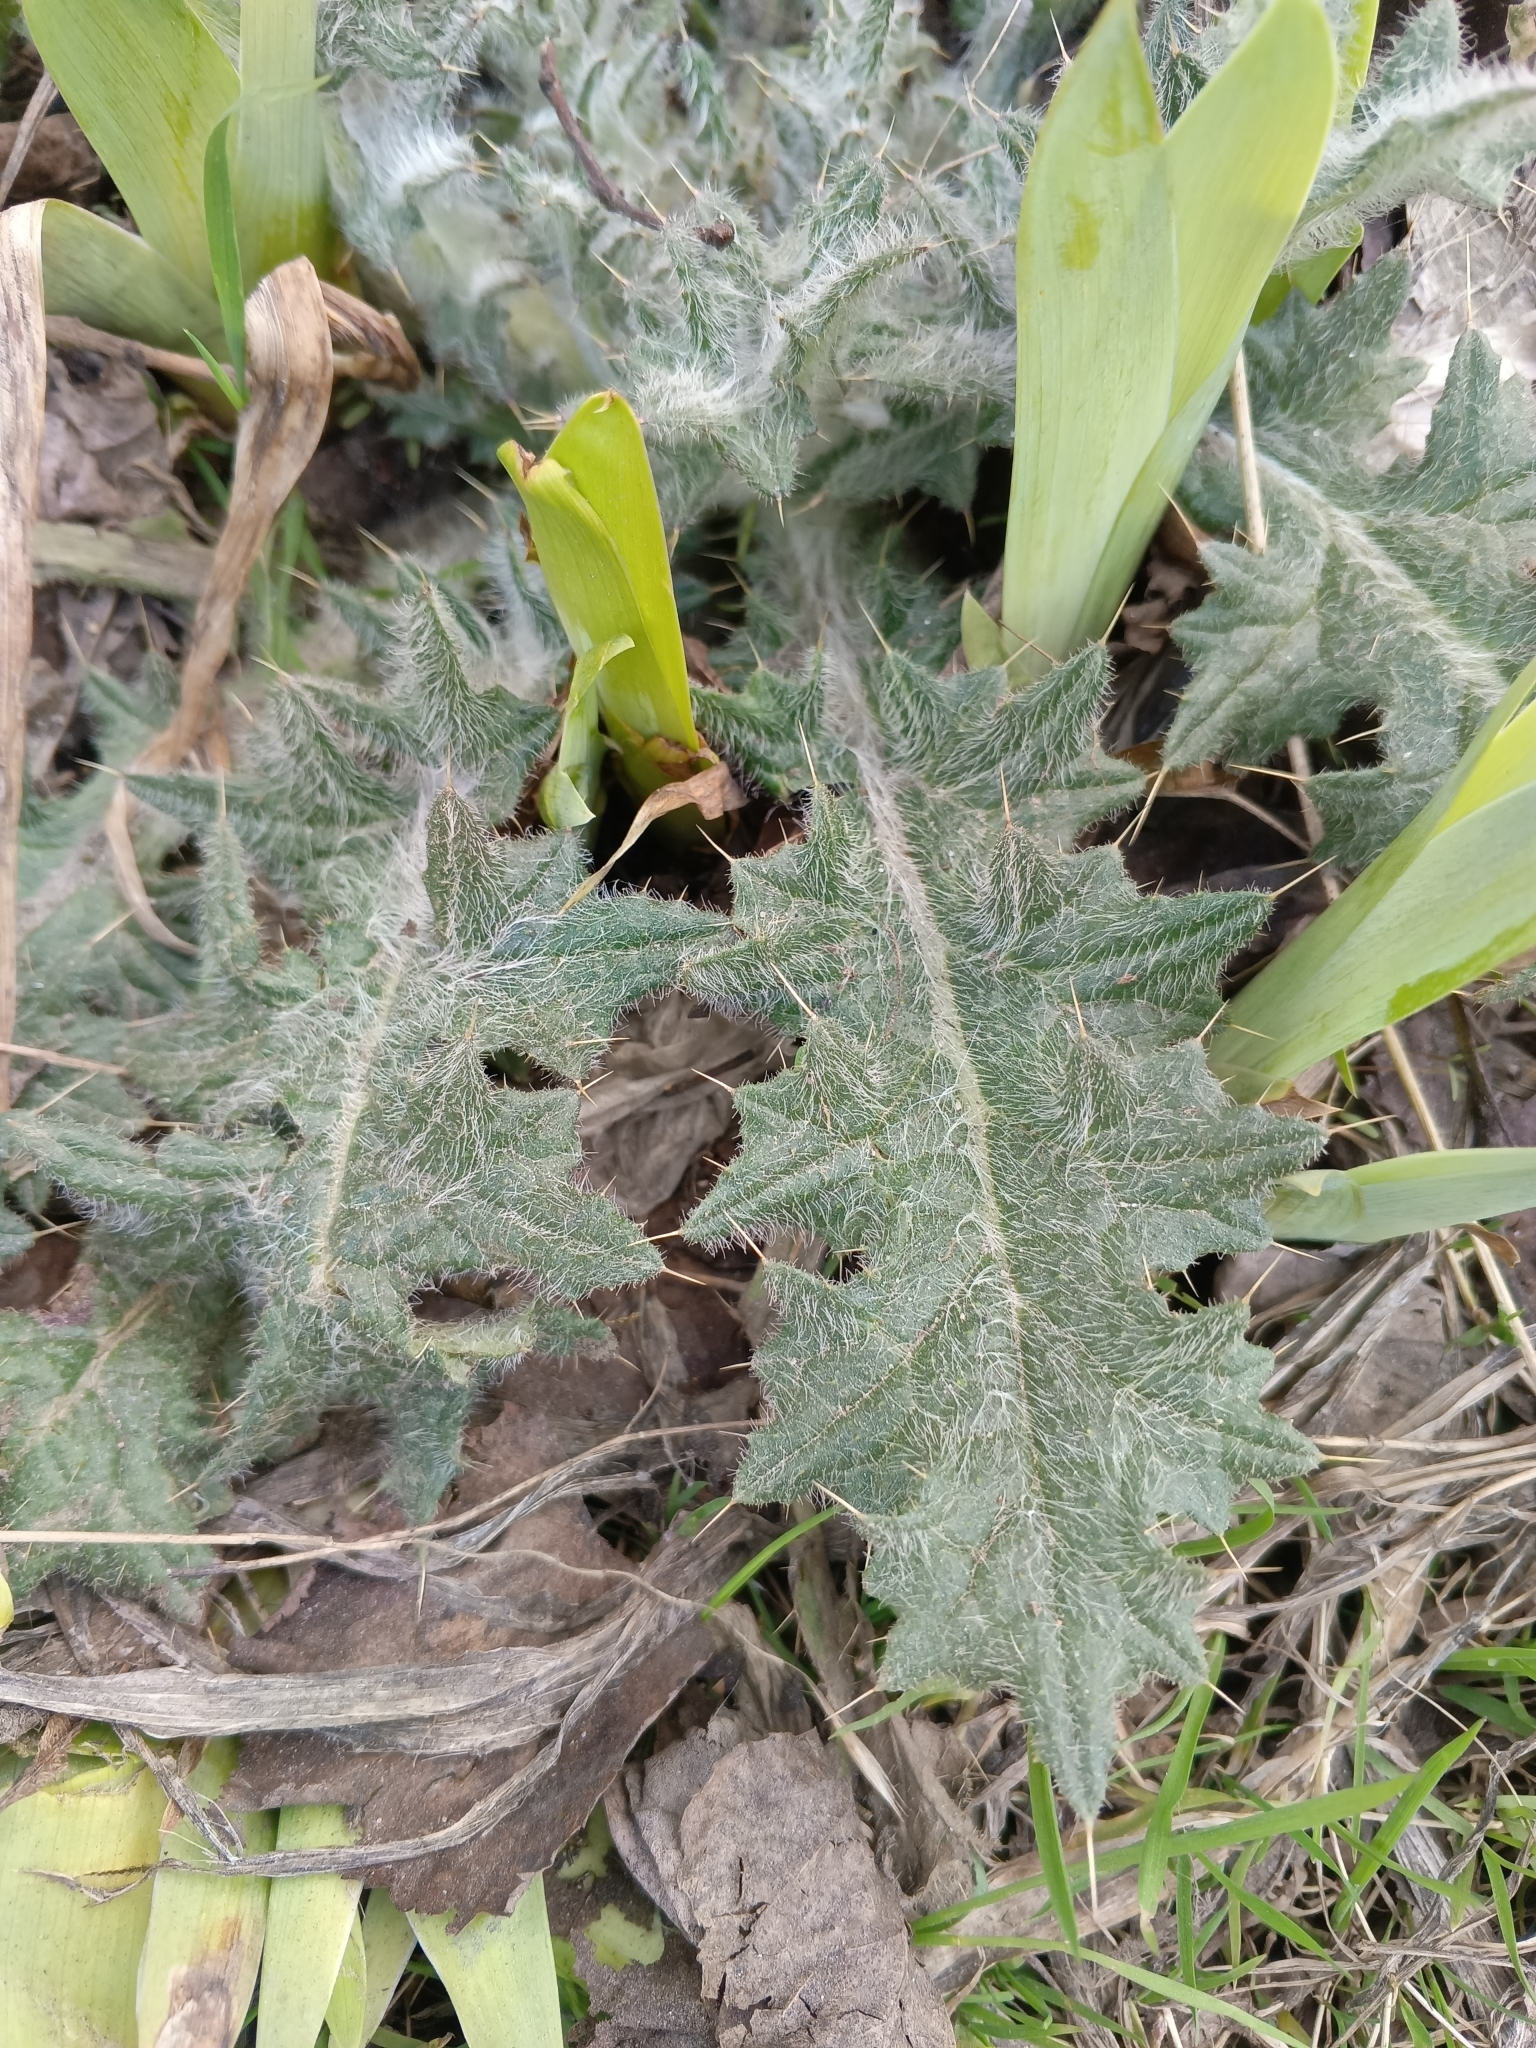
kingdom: Plantae
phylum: Tracheophyta
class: Magnoliopsida
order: Asterales
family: Asteraceae
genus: Cirsium
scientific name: Cirsium vulgare
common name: Bull thistle
